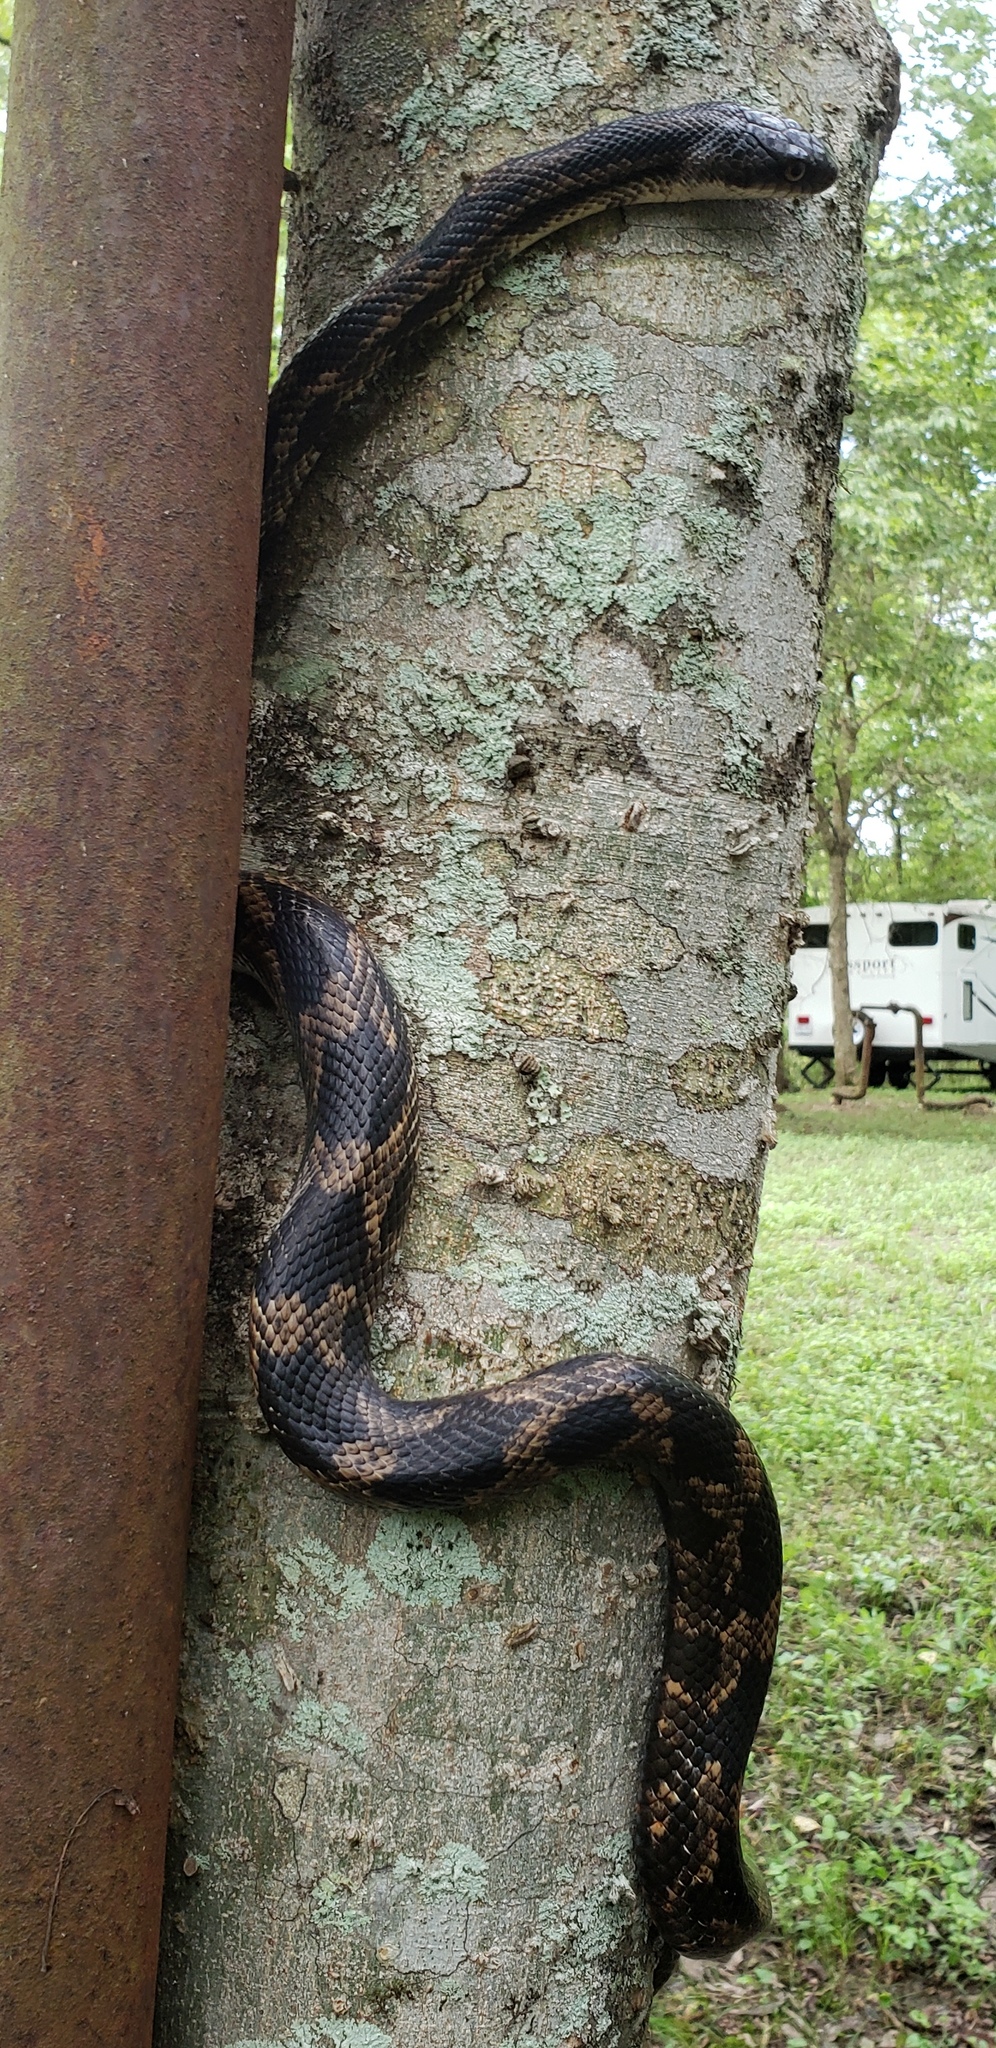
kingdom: Animalia
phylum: Chordata
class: Squamata
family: Colubridae
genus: Pantherophis
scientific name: Pantherophis obsoletus
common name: Black rat snake
